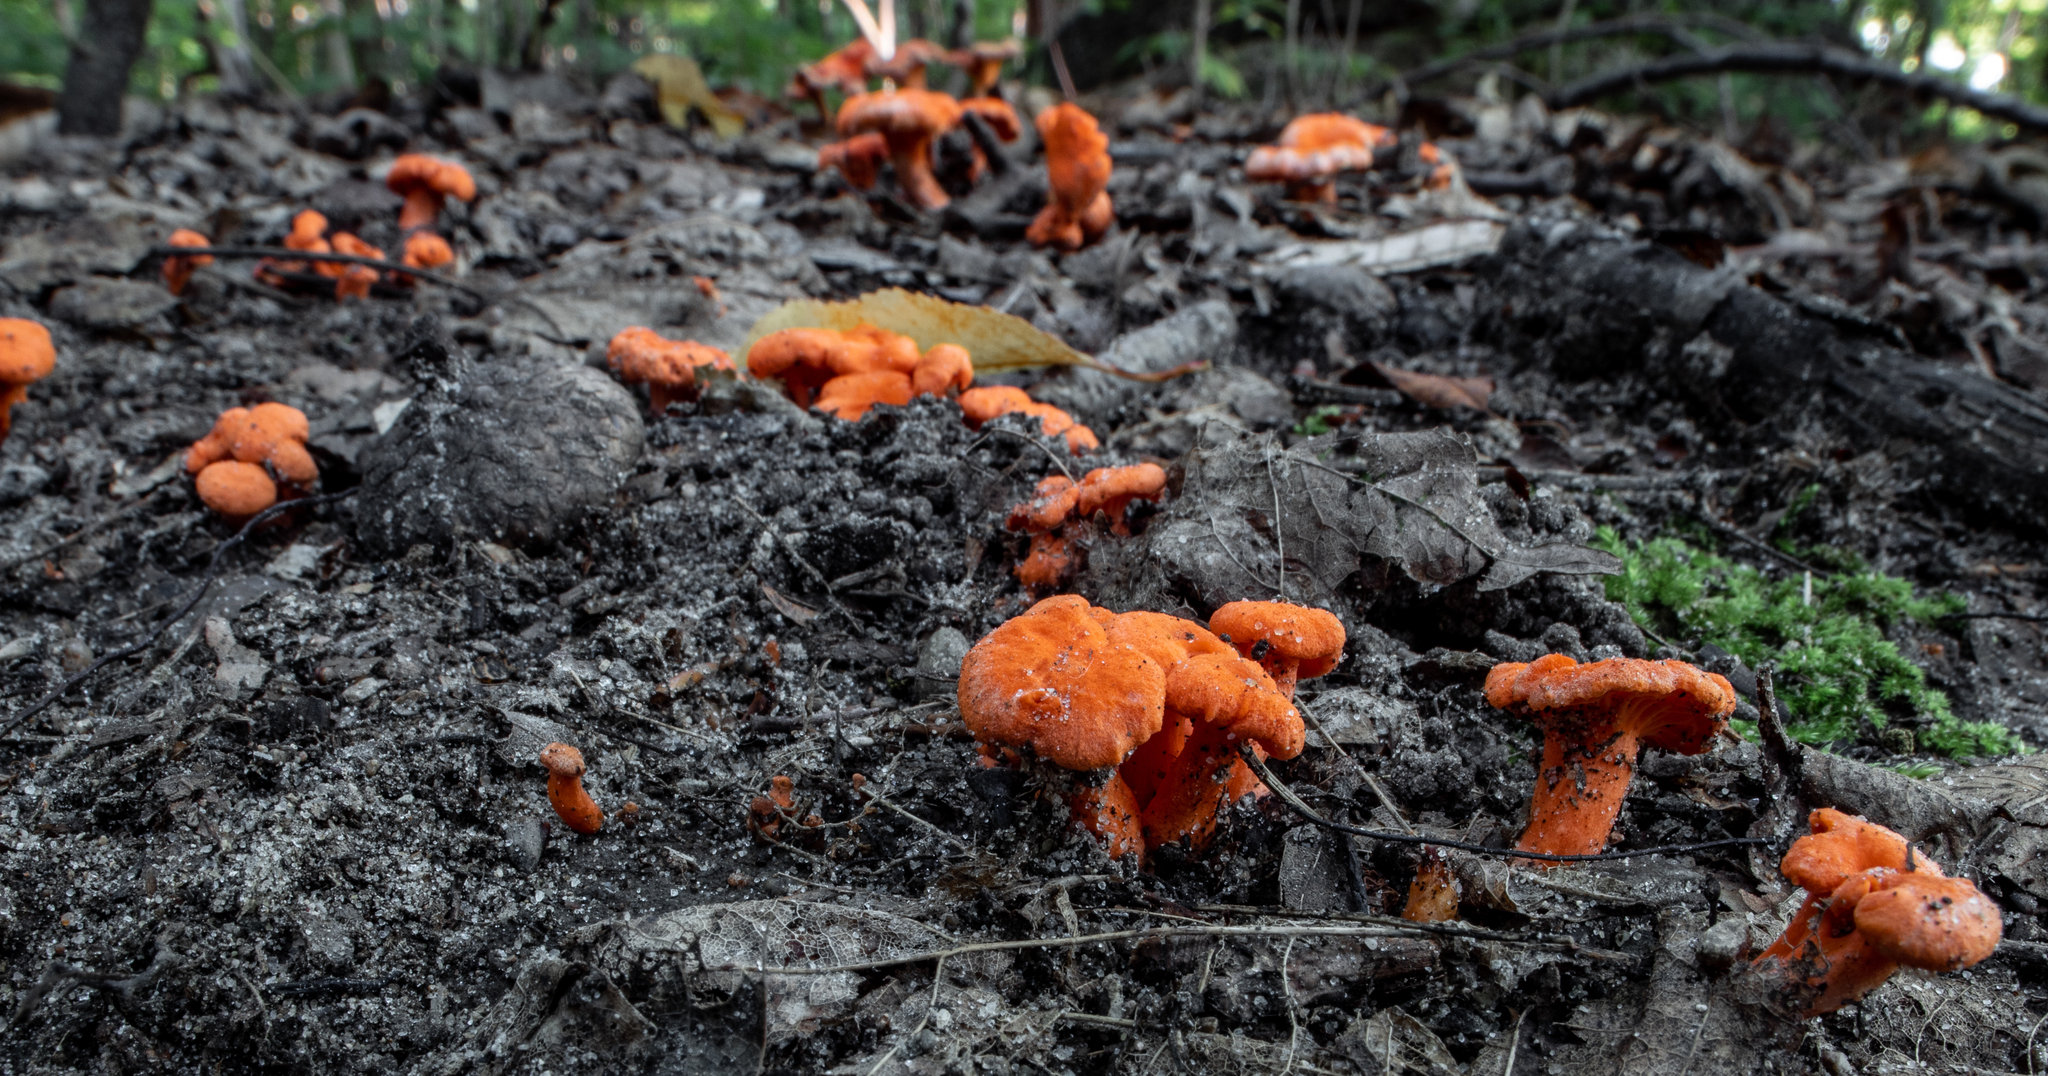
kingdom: Fungi
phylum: Basidiomycota
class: Agaricomycetes
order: Cantharellales
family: Hydnaceae
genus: Cantharellus
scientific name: Cantharellus cinnabarinus
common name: Cinnabar chanterelle
